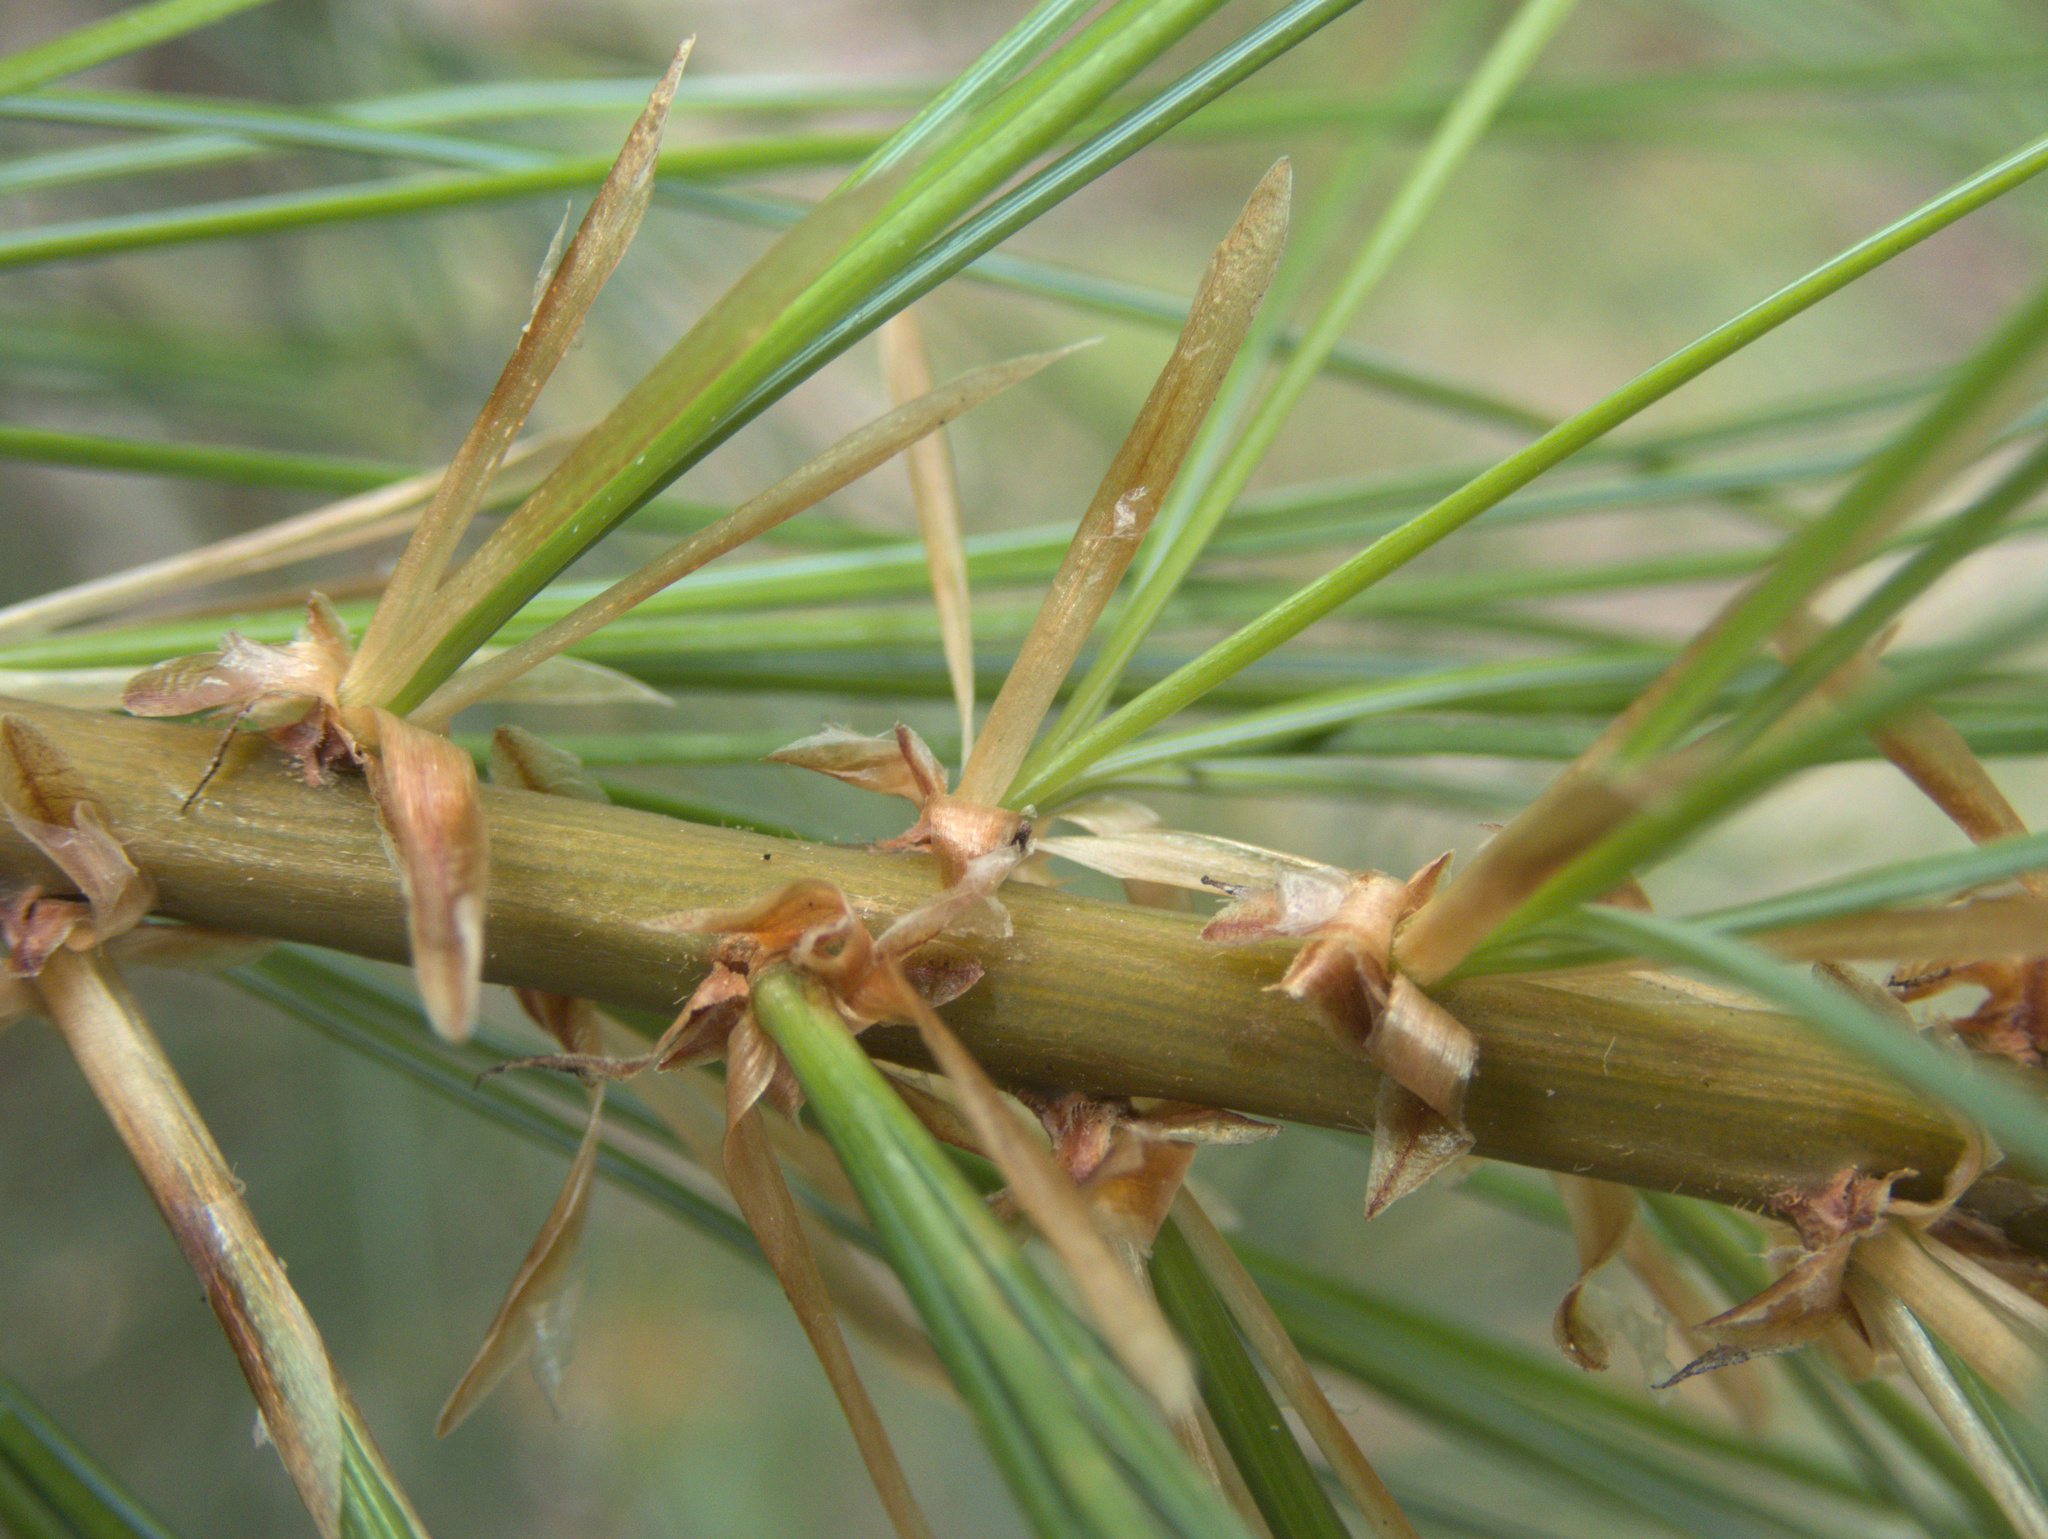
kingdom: Plantae
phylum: Tracheophyta
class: Pinopsida
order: Pinales
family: Pinaceae
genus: Pinus
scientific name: Pinus strobus
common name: Weymouth pine
